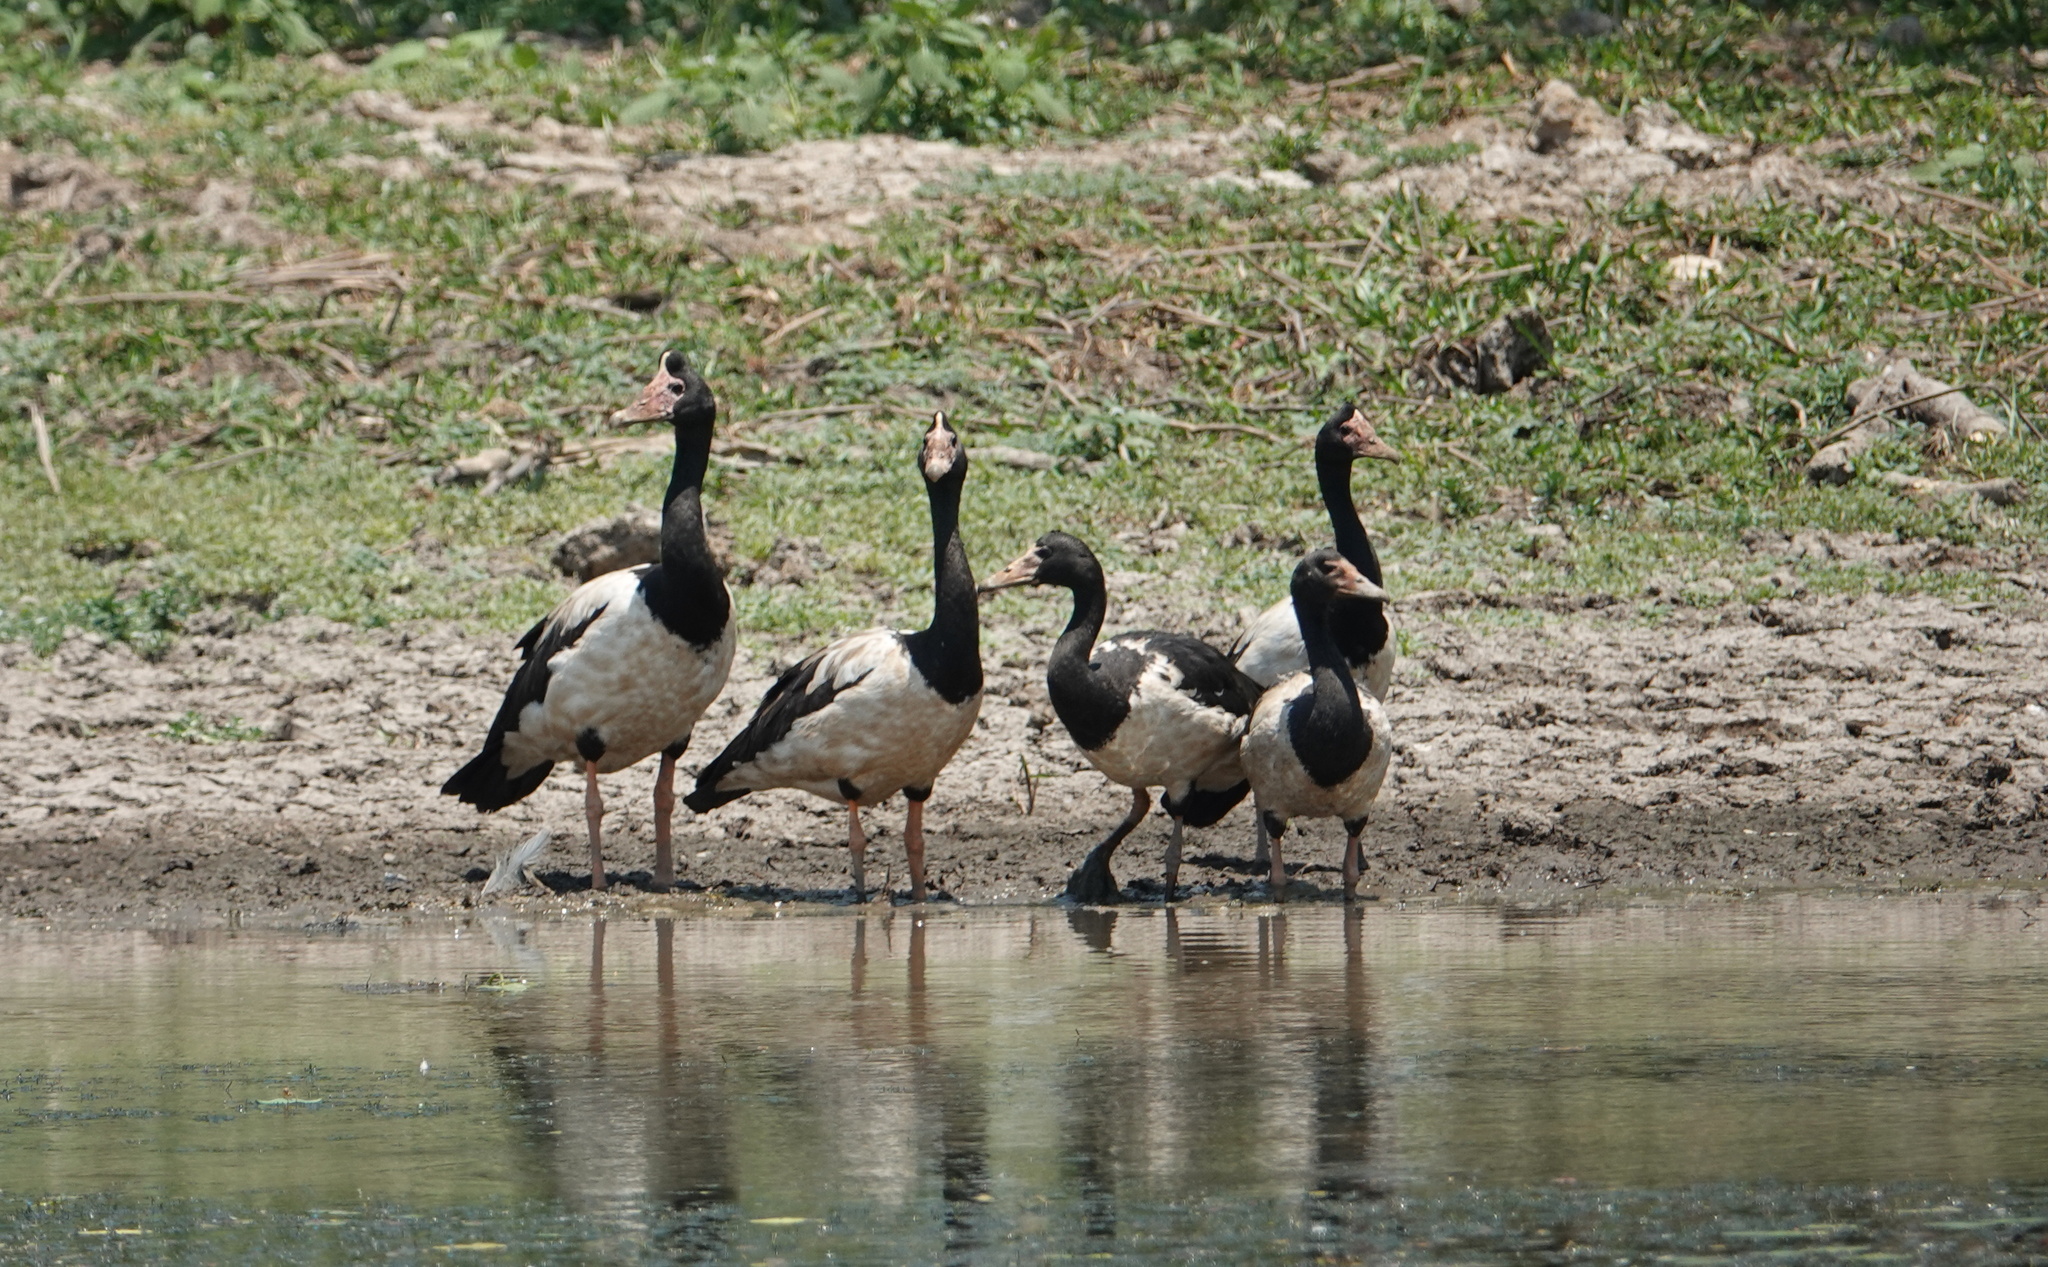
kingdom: Animalia
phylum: Chordata
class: Aves
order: Anseriformes
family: Anseranatidae
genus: Anseranas
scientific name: Anseranas semipalmata
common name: Magpie goose
